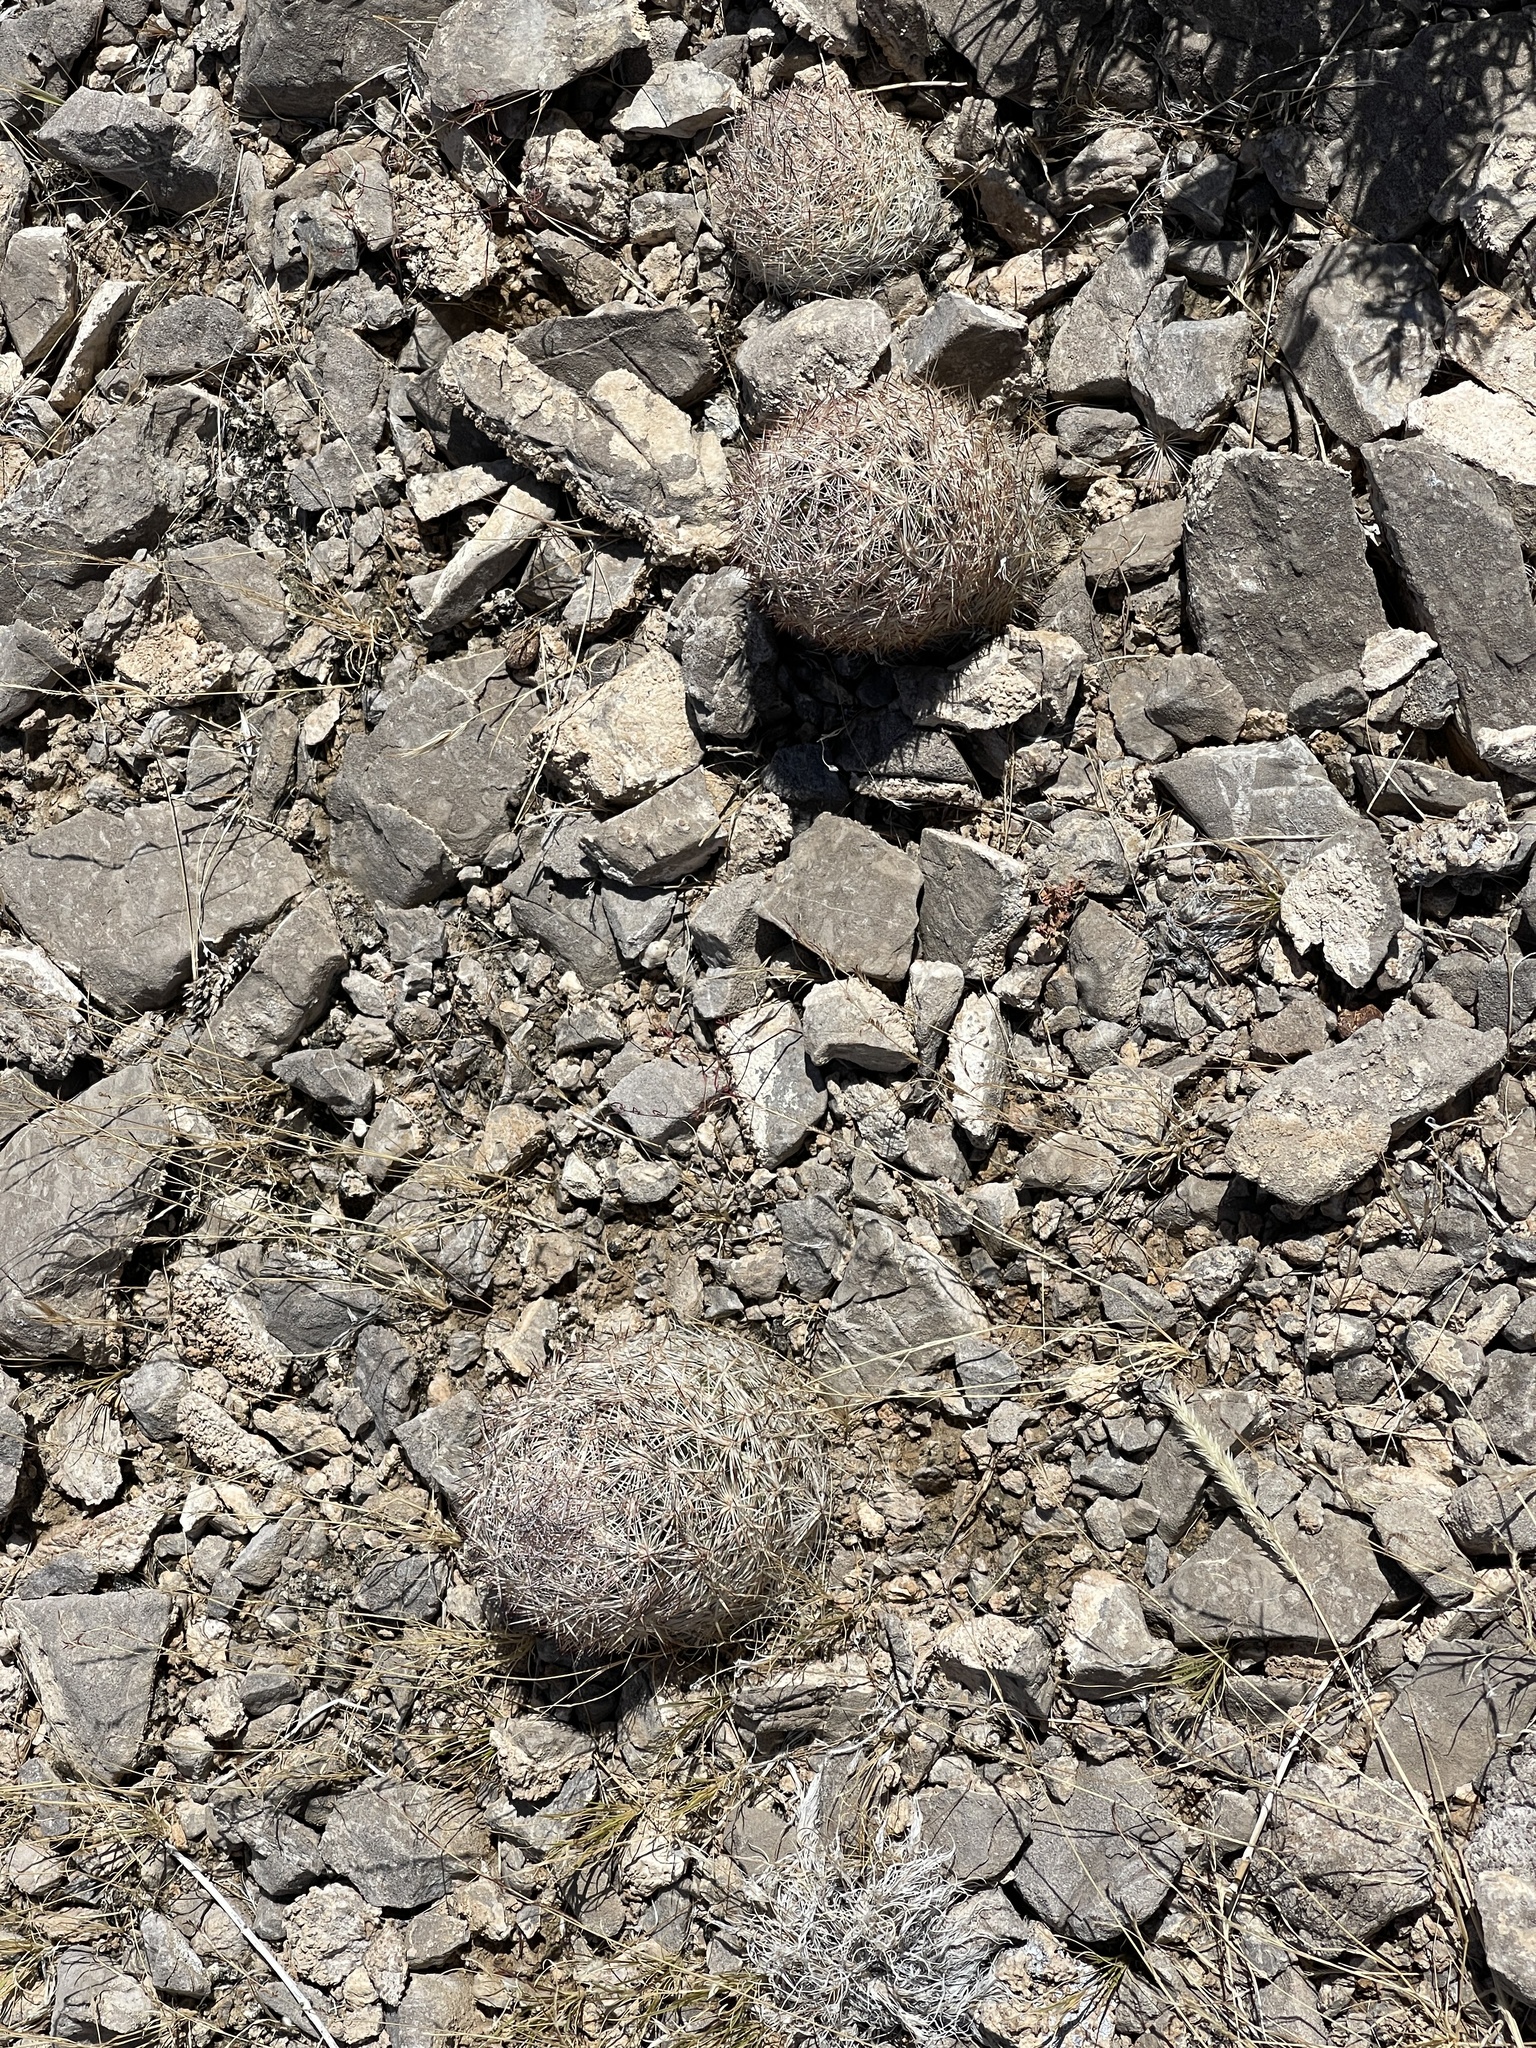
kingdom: Plantae
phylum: Tracheophyta
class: Magnoliopsida
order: Caryophyllales
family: Cactaceae
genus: Pelecyphora
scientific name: Pelecyphora dasyacantha
